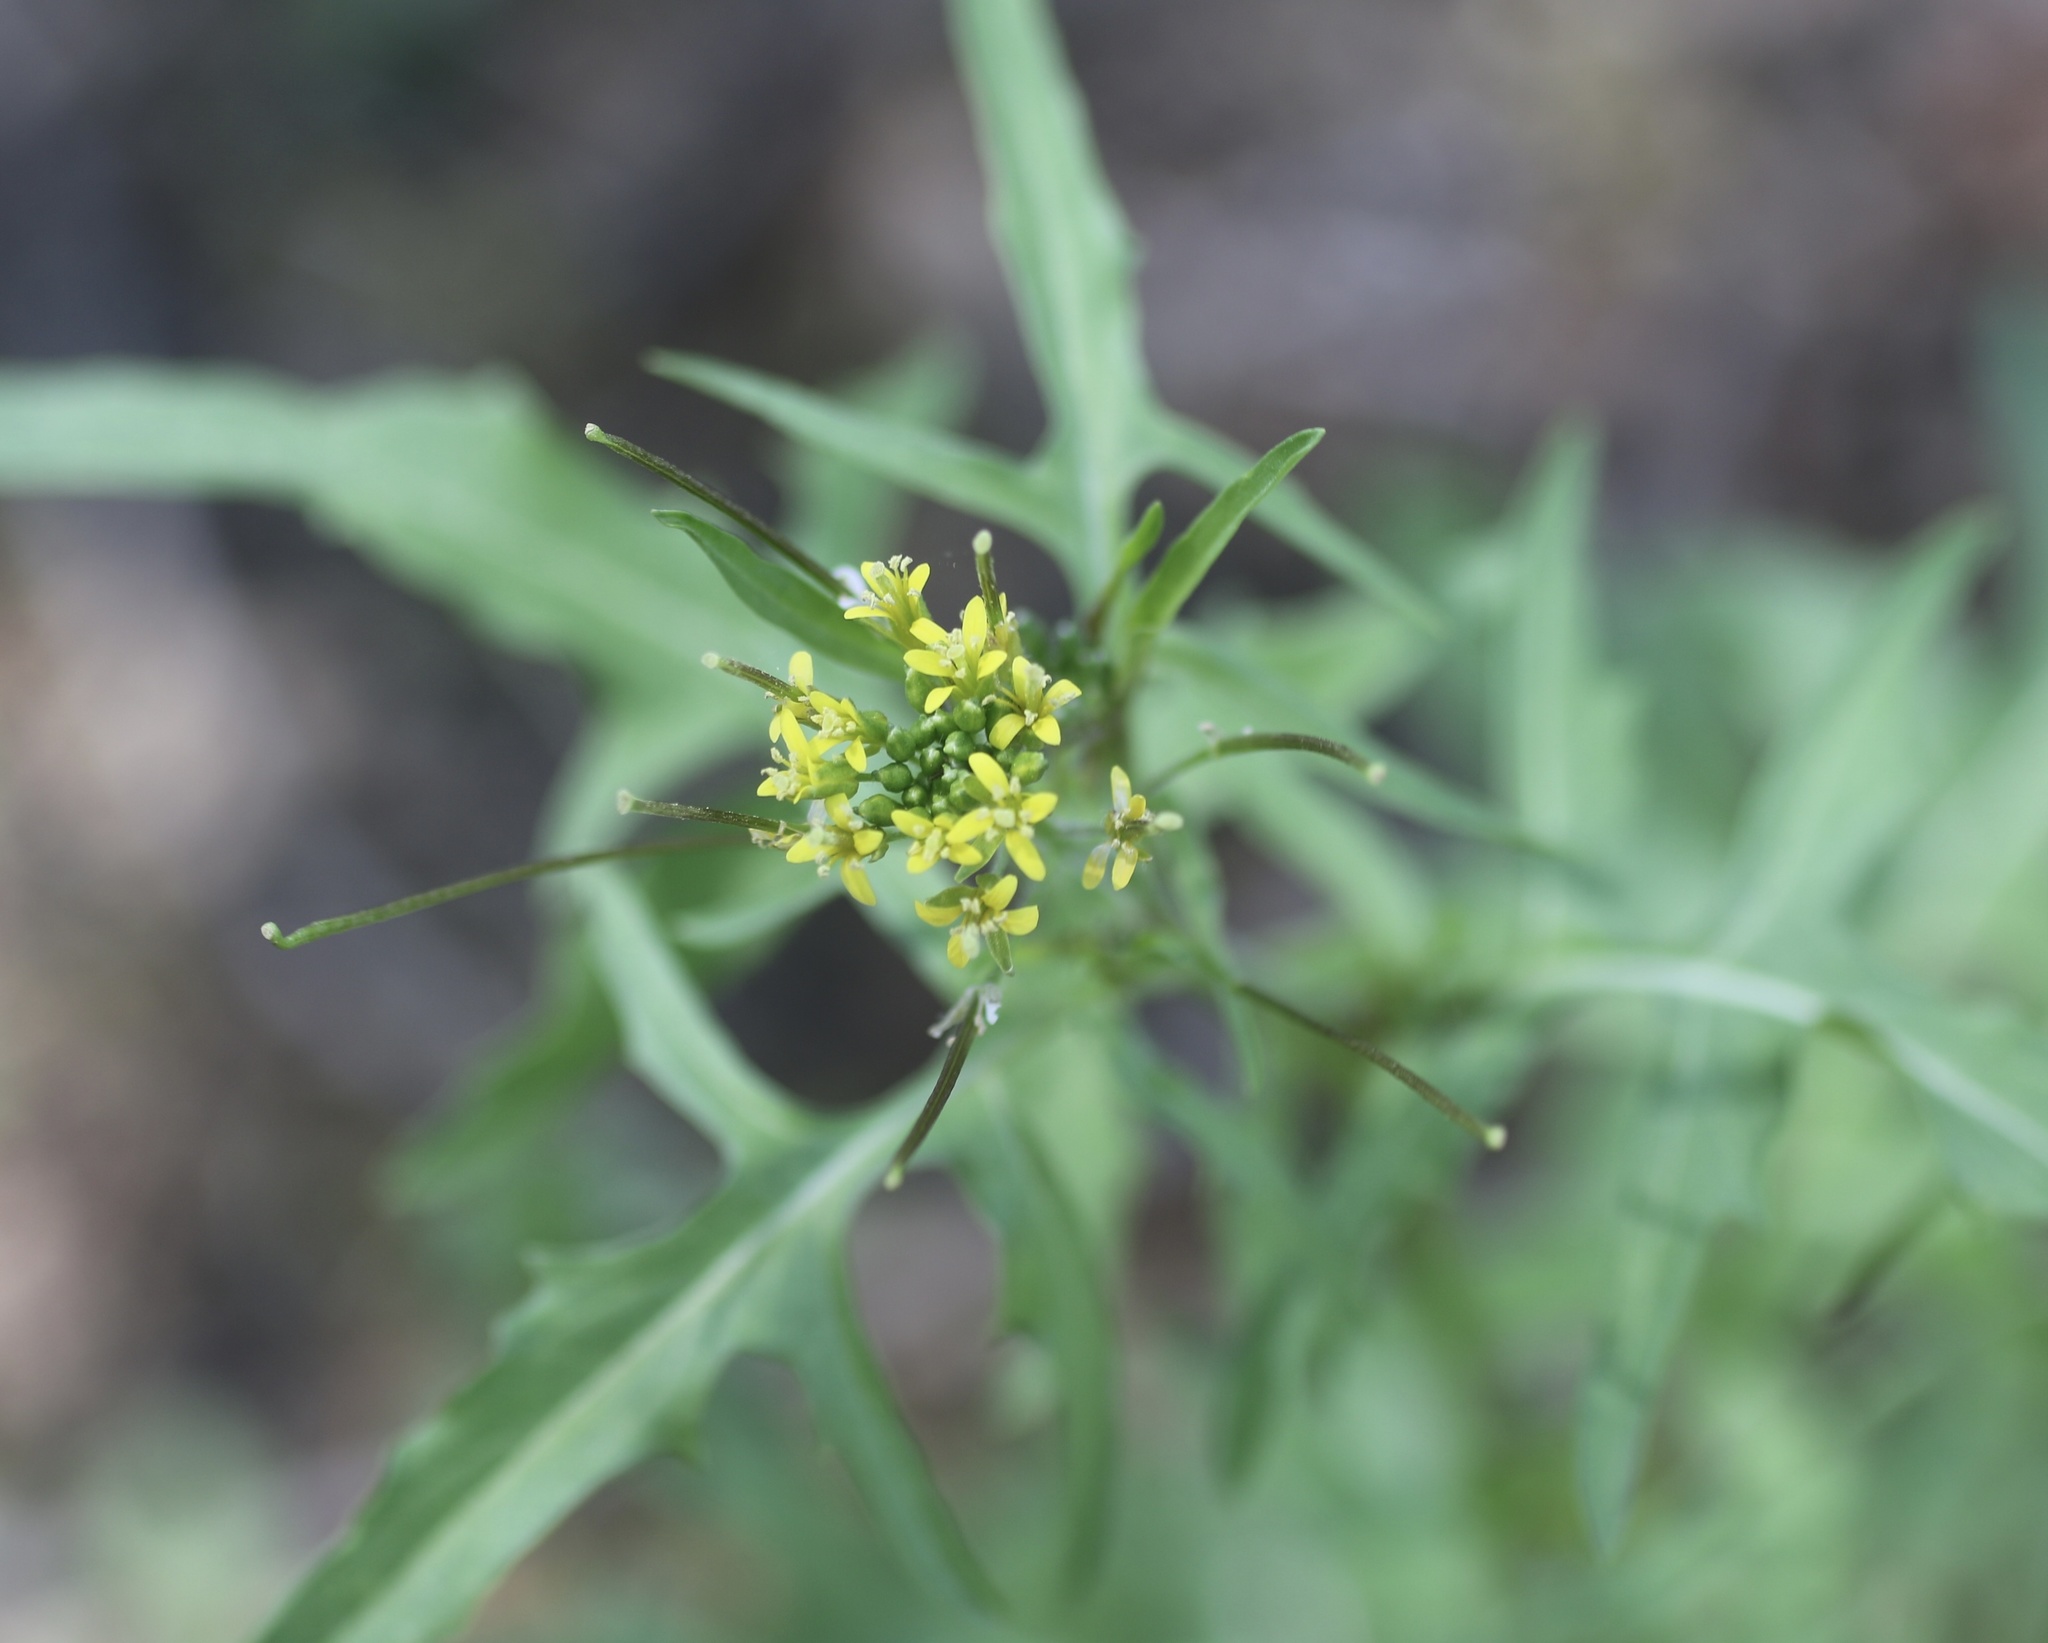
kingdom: Plantae
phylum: Tracheophyta
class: Magnoliopsida
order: Brassicales
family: Brassicaceae
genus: Sisymbrium
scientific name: Sisymbrium irio
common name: London rocket
